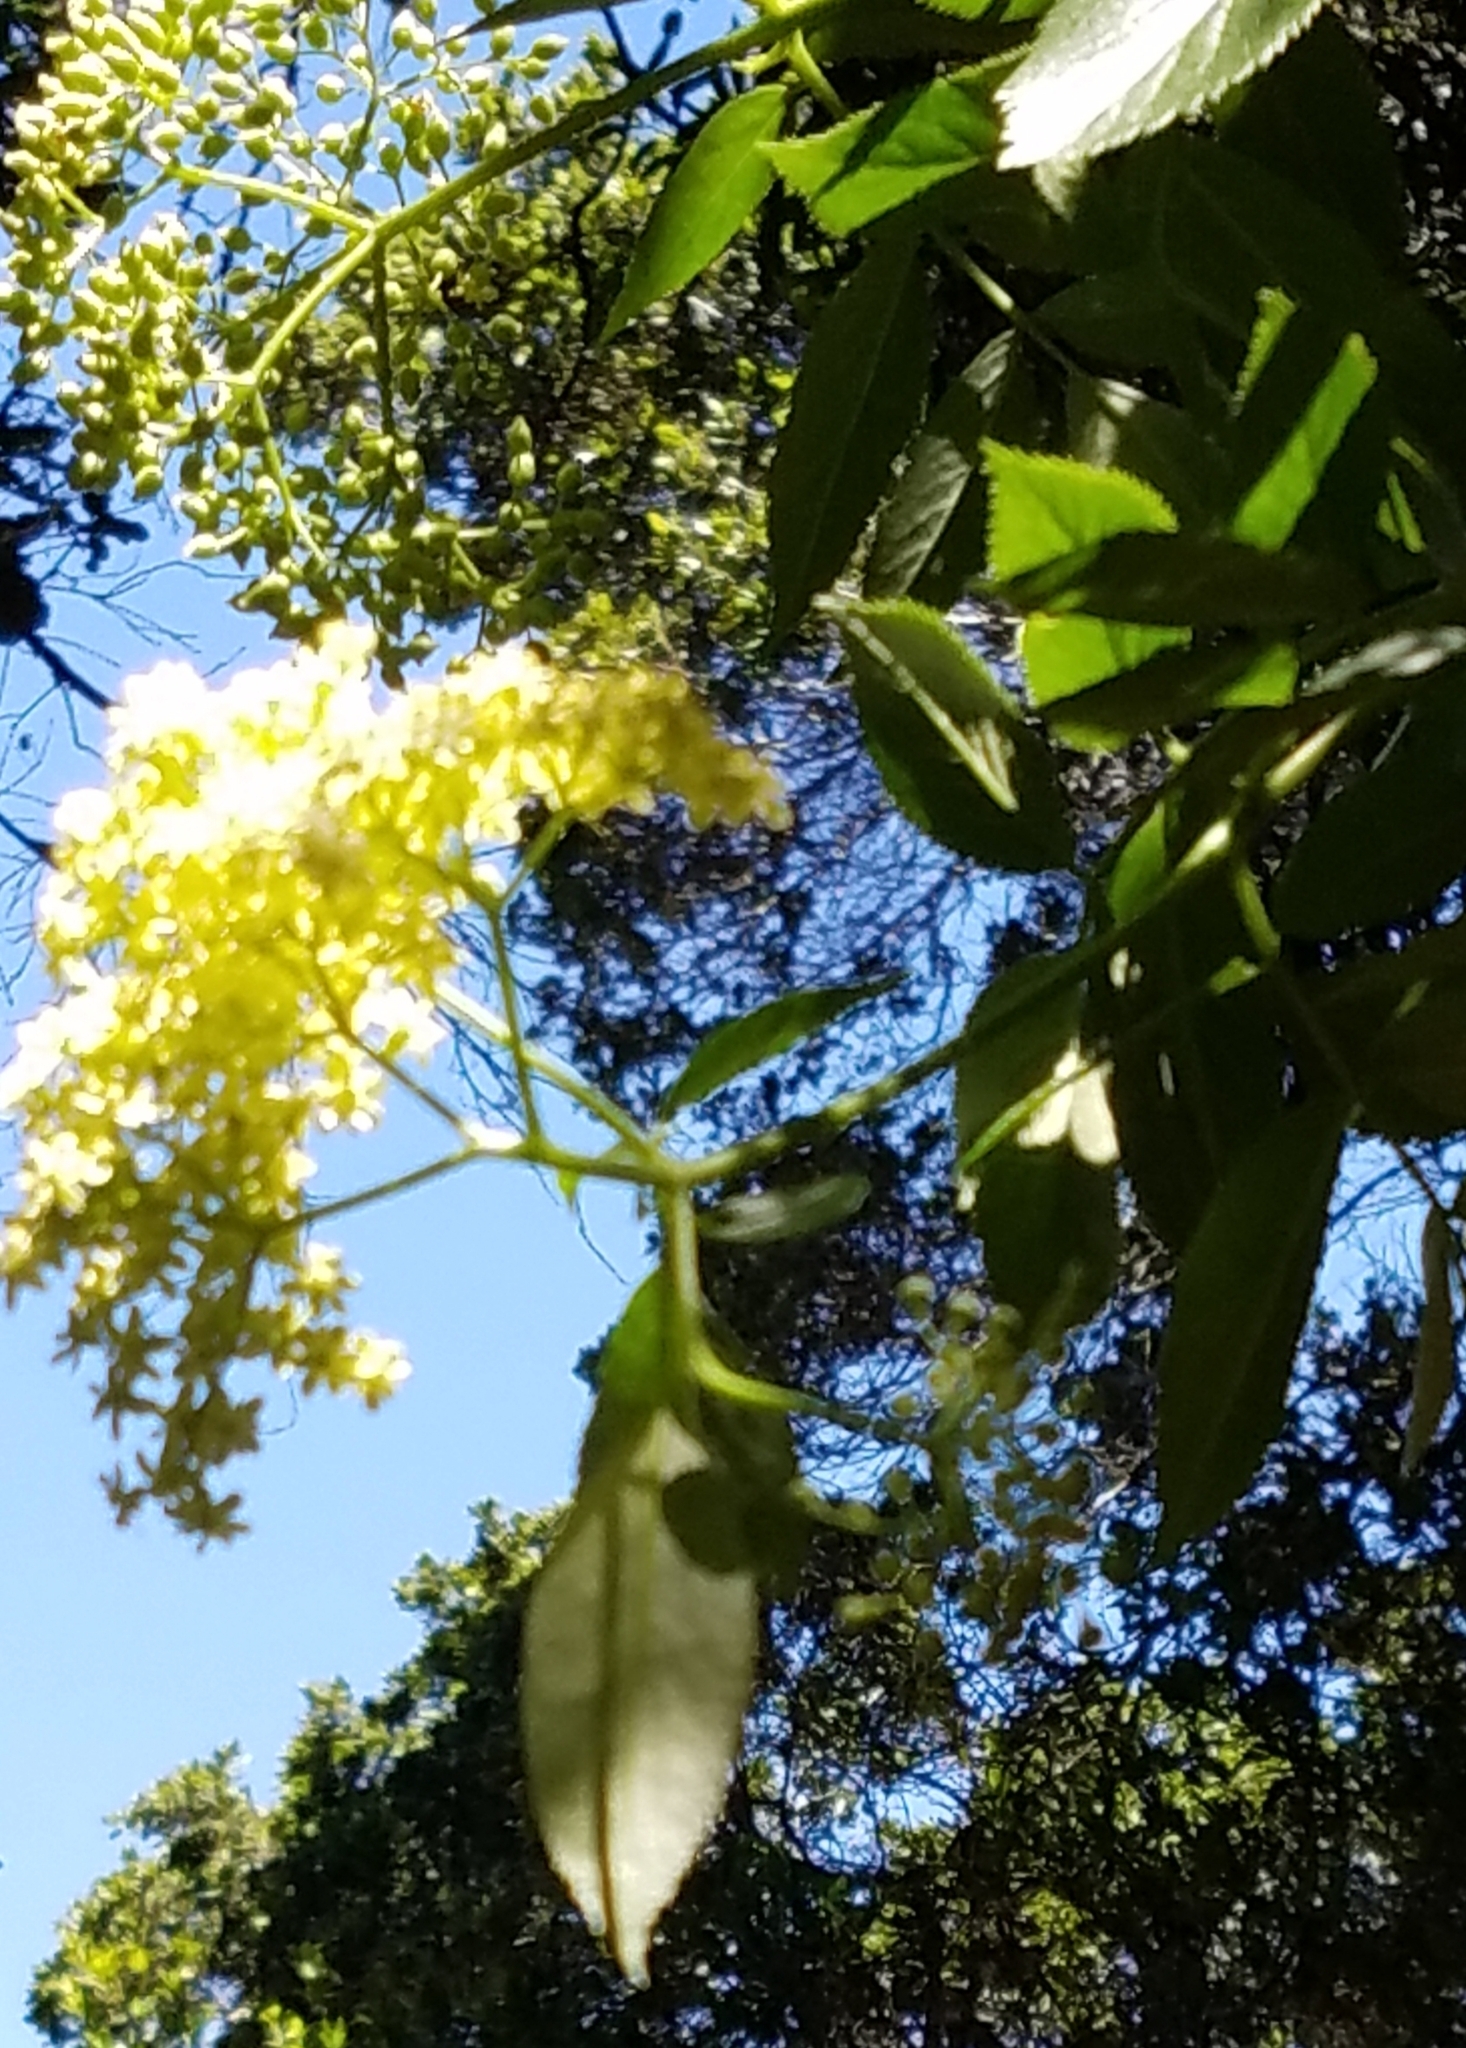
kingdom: Plantae
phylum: Tracheophyta
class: Magnoliopsida
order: Dipsacales
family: Viburnaceae
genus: Sambucus
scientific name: Sambucus cerulea
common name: Blue elder
